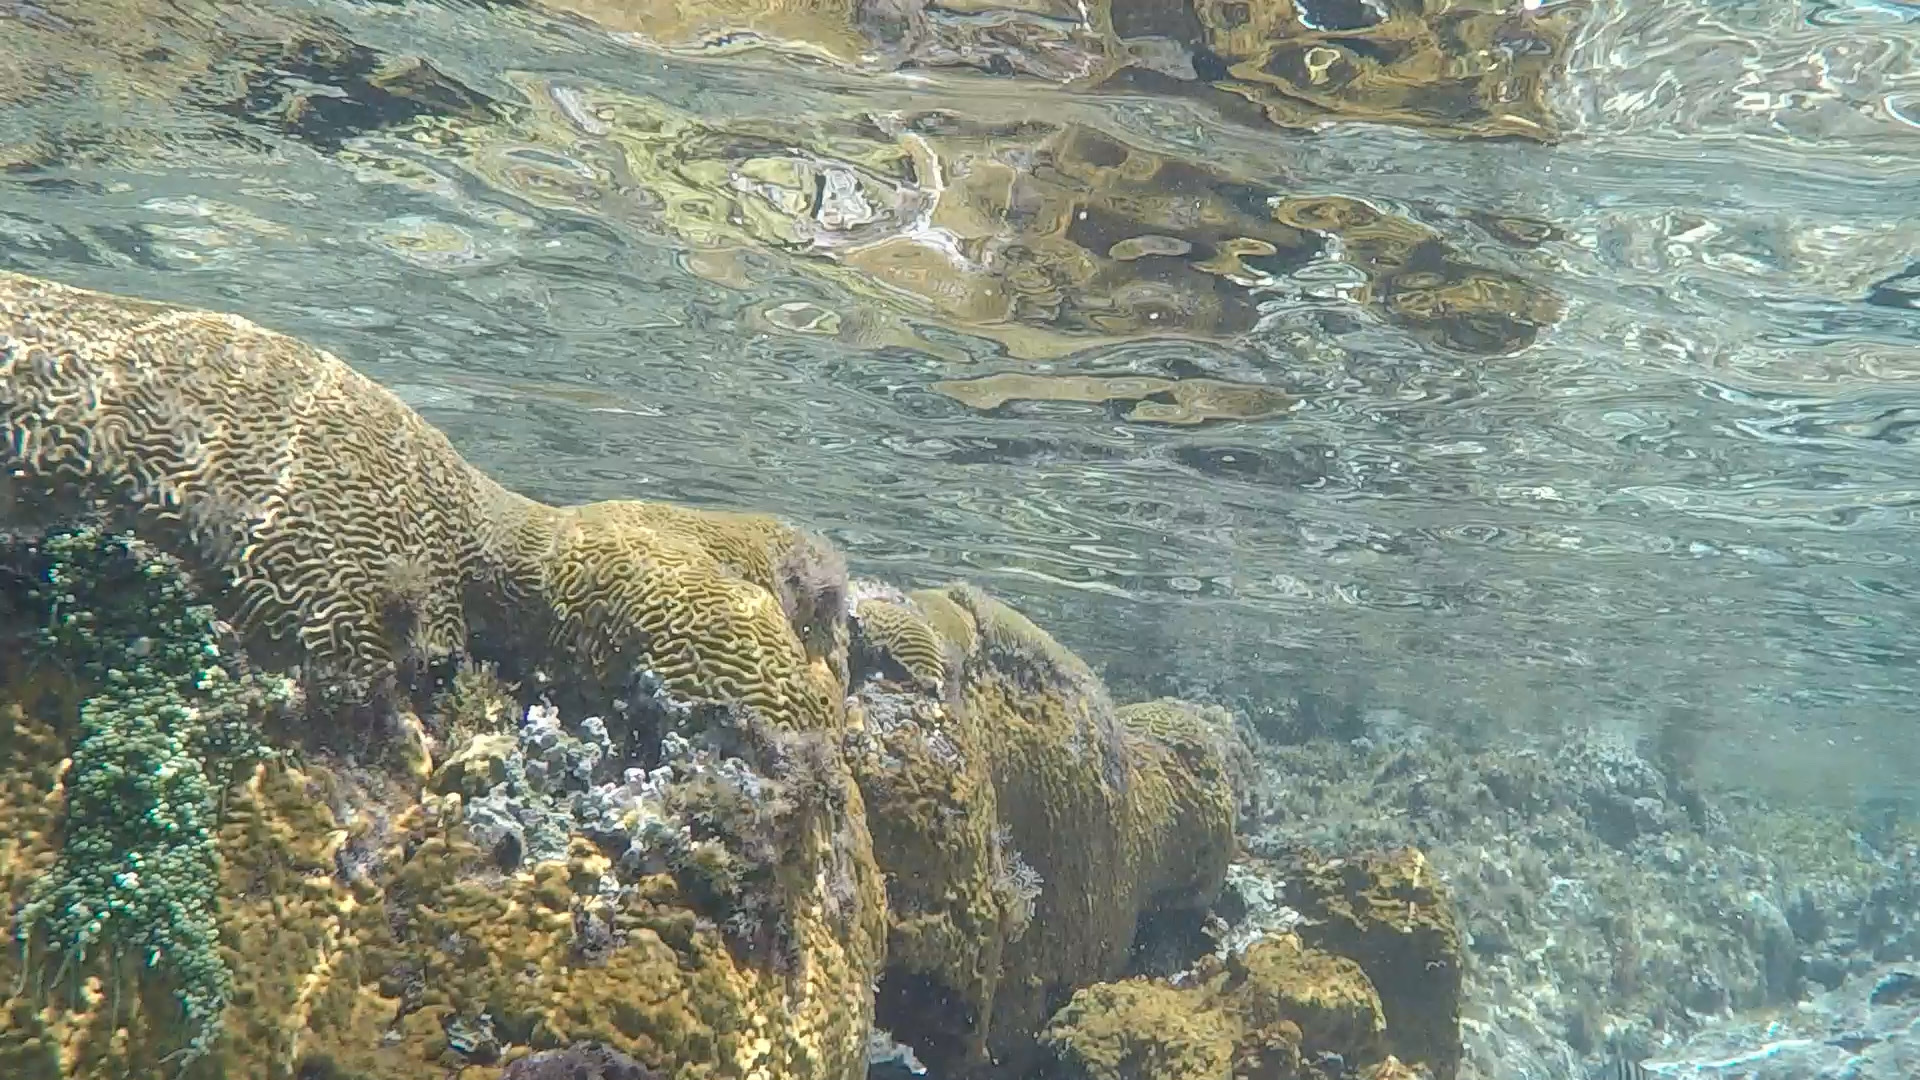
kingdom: Animalia
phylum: Cnidaria
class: Anthozoa
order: Scleractinia
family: Faviidae
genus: Colpophyllia
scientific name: Colpophyllia natans
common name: Boulder brain coral
